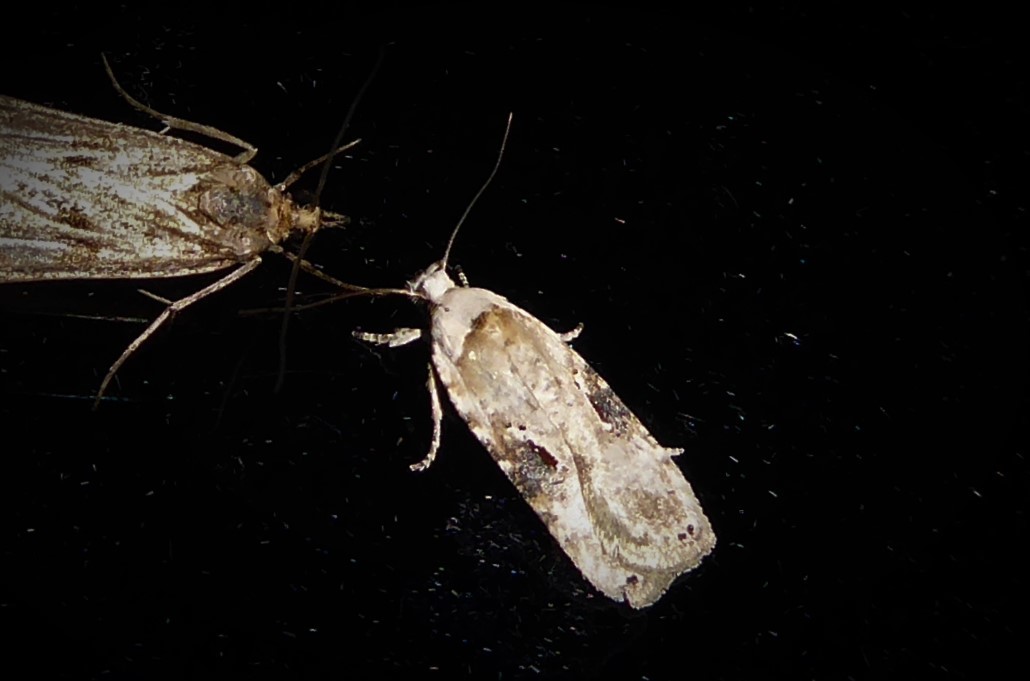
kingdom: Animalia
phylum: Arthropoda
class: Insecta
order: Lepidoptera
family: Depressariidae
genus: Agonopterix
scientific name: Agonopterix alstroemeriana
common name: Moth
